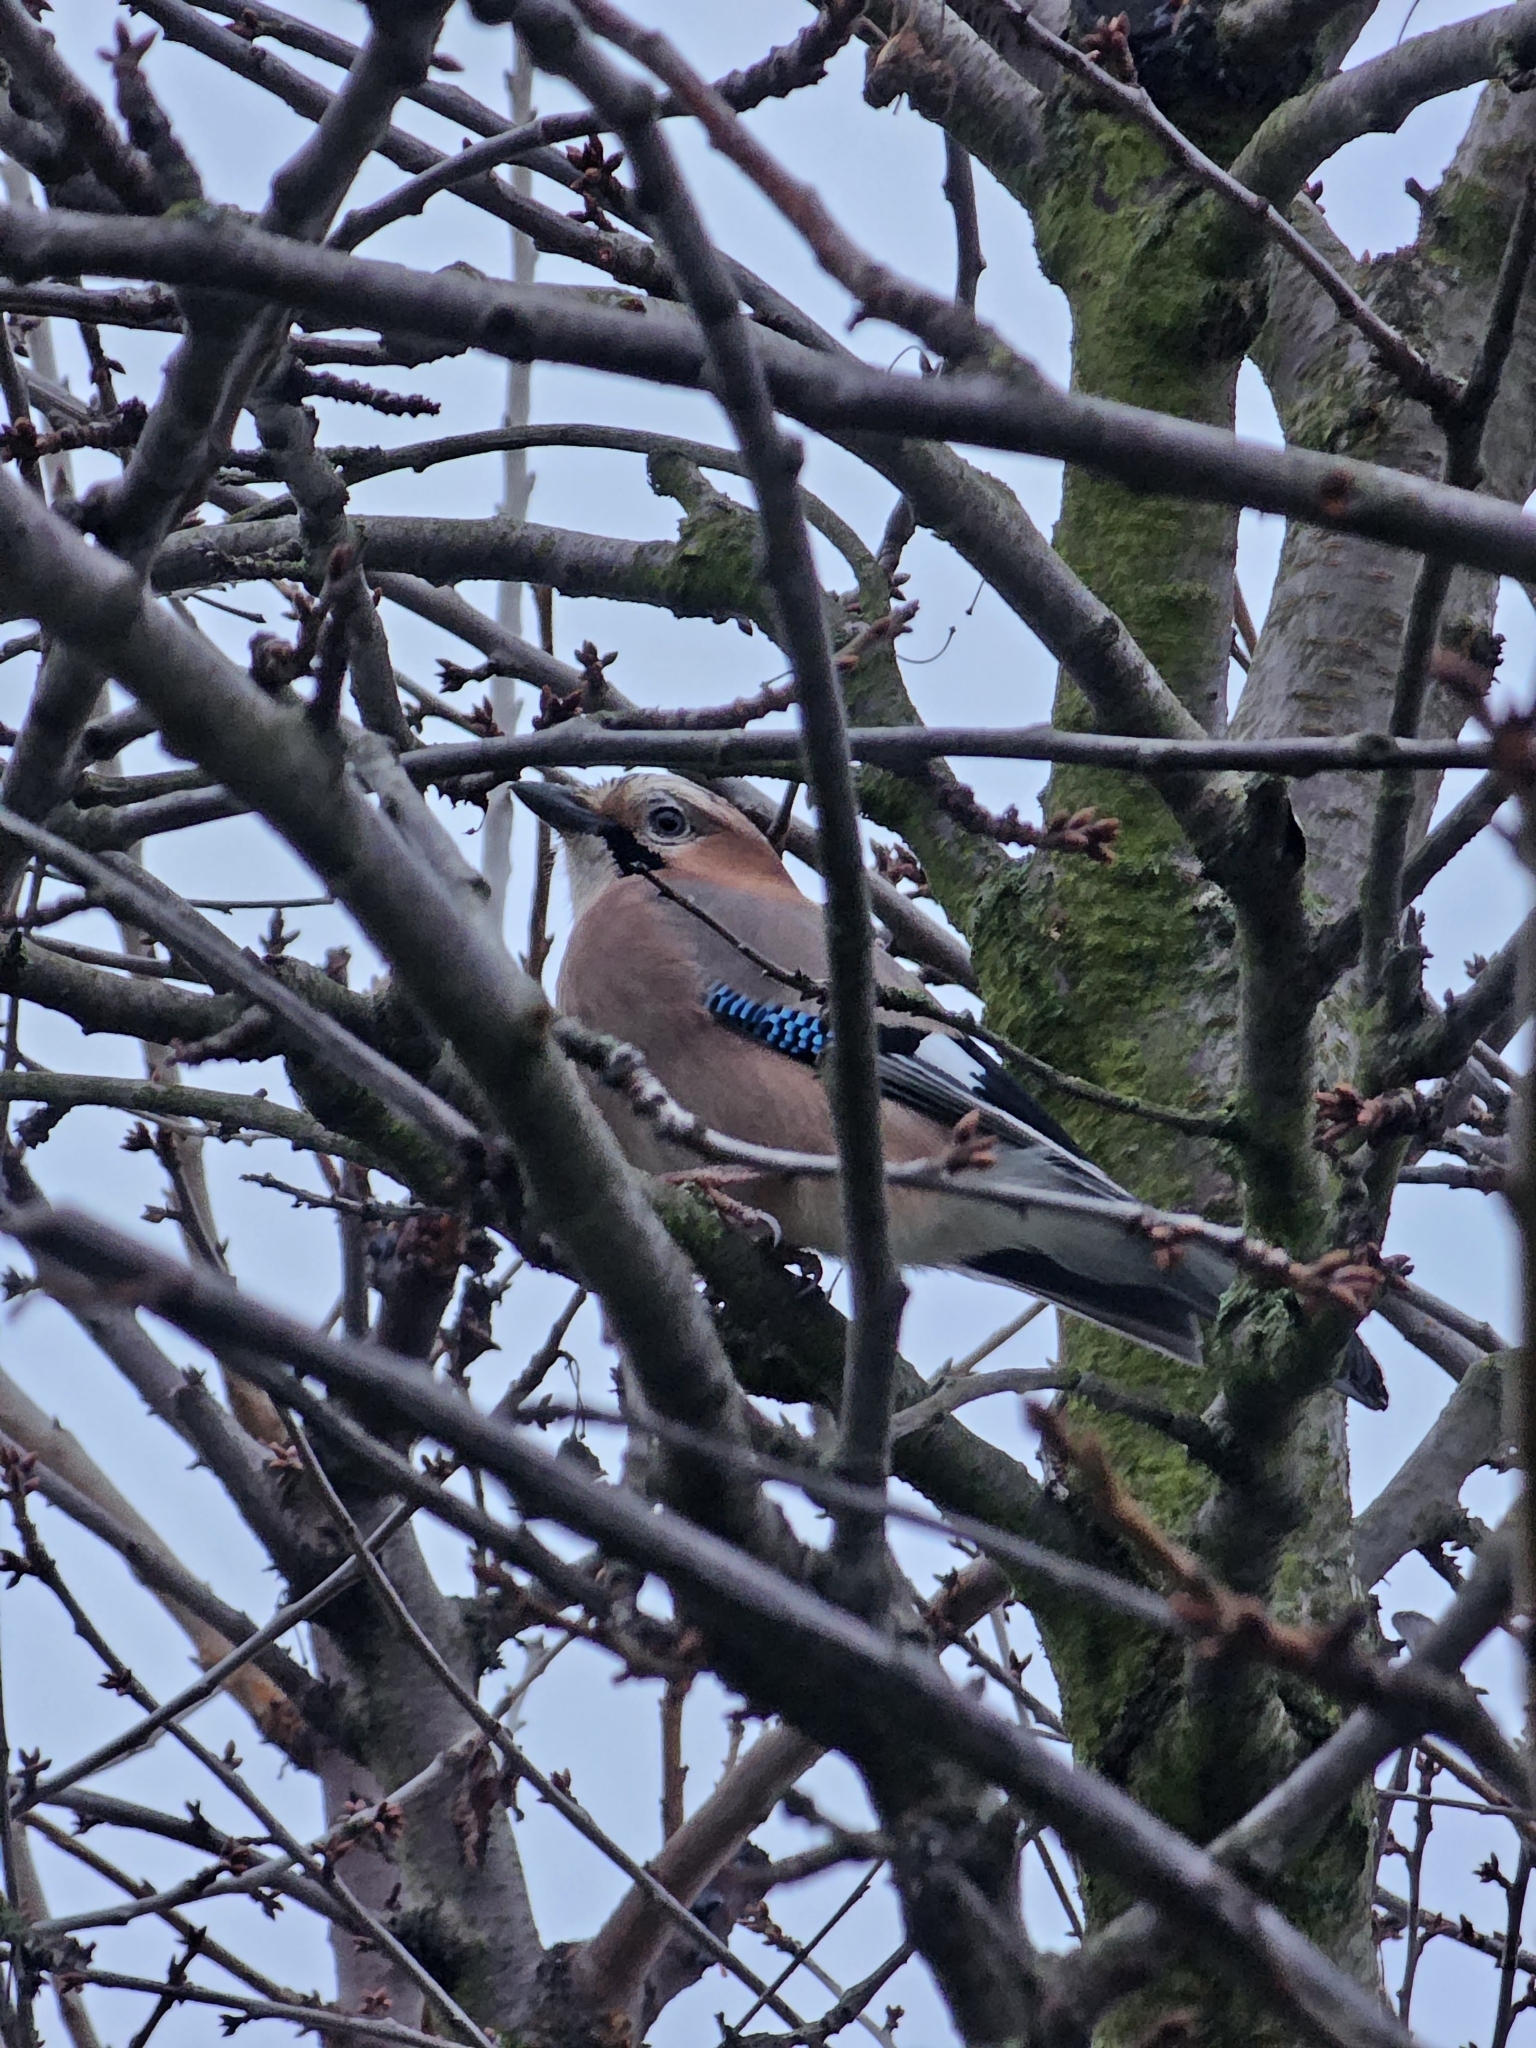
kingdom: Animalia
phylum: Chordata
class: Aves
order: Passeriformes
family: Corvidae
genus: Garrulus
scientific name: Garrulus glandarius
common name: Eurasian jay
